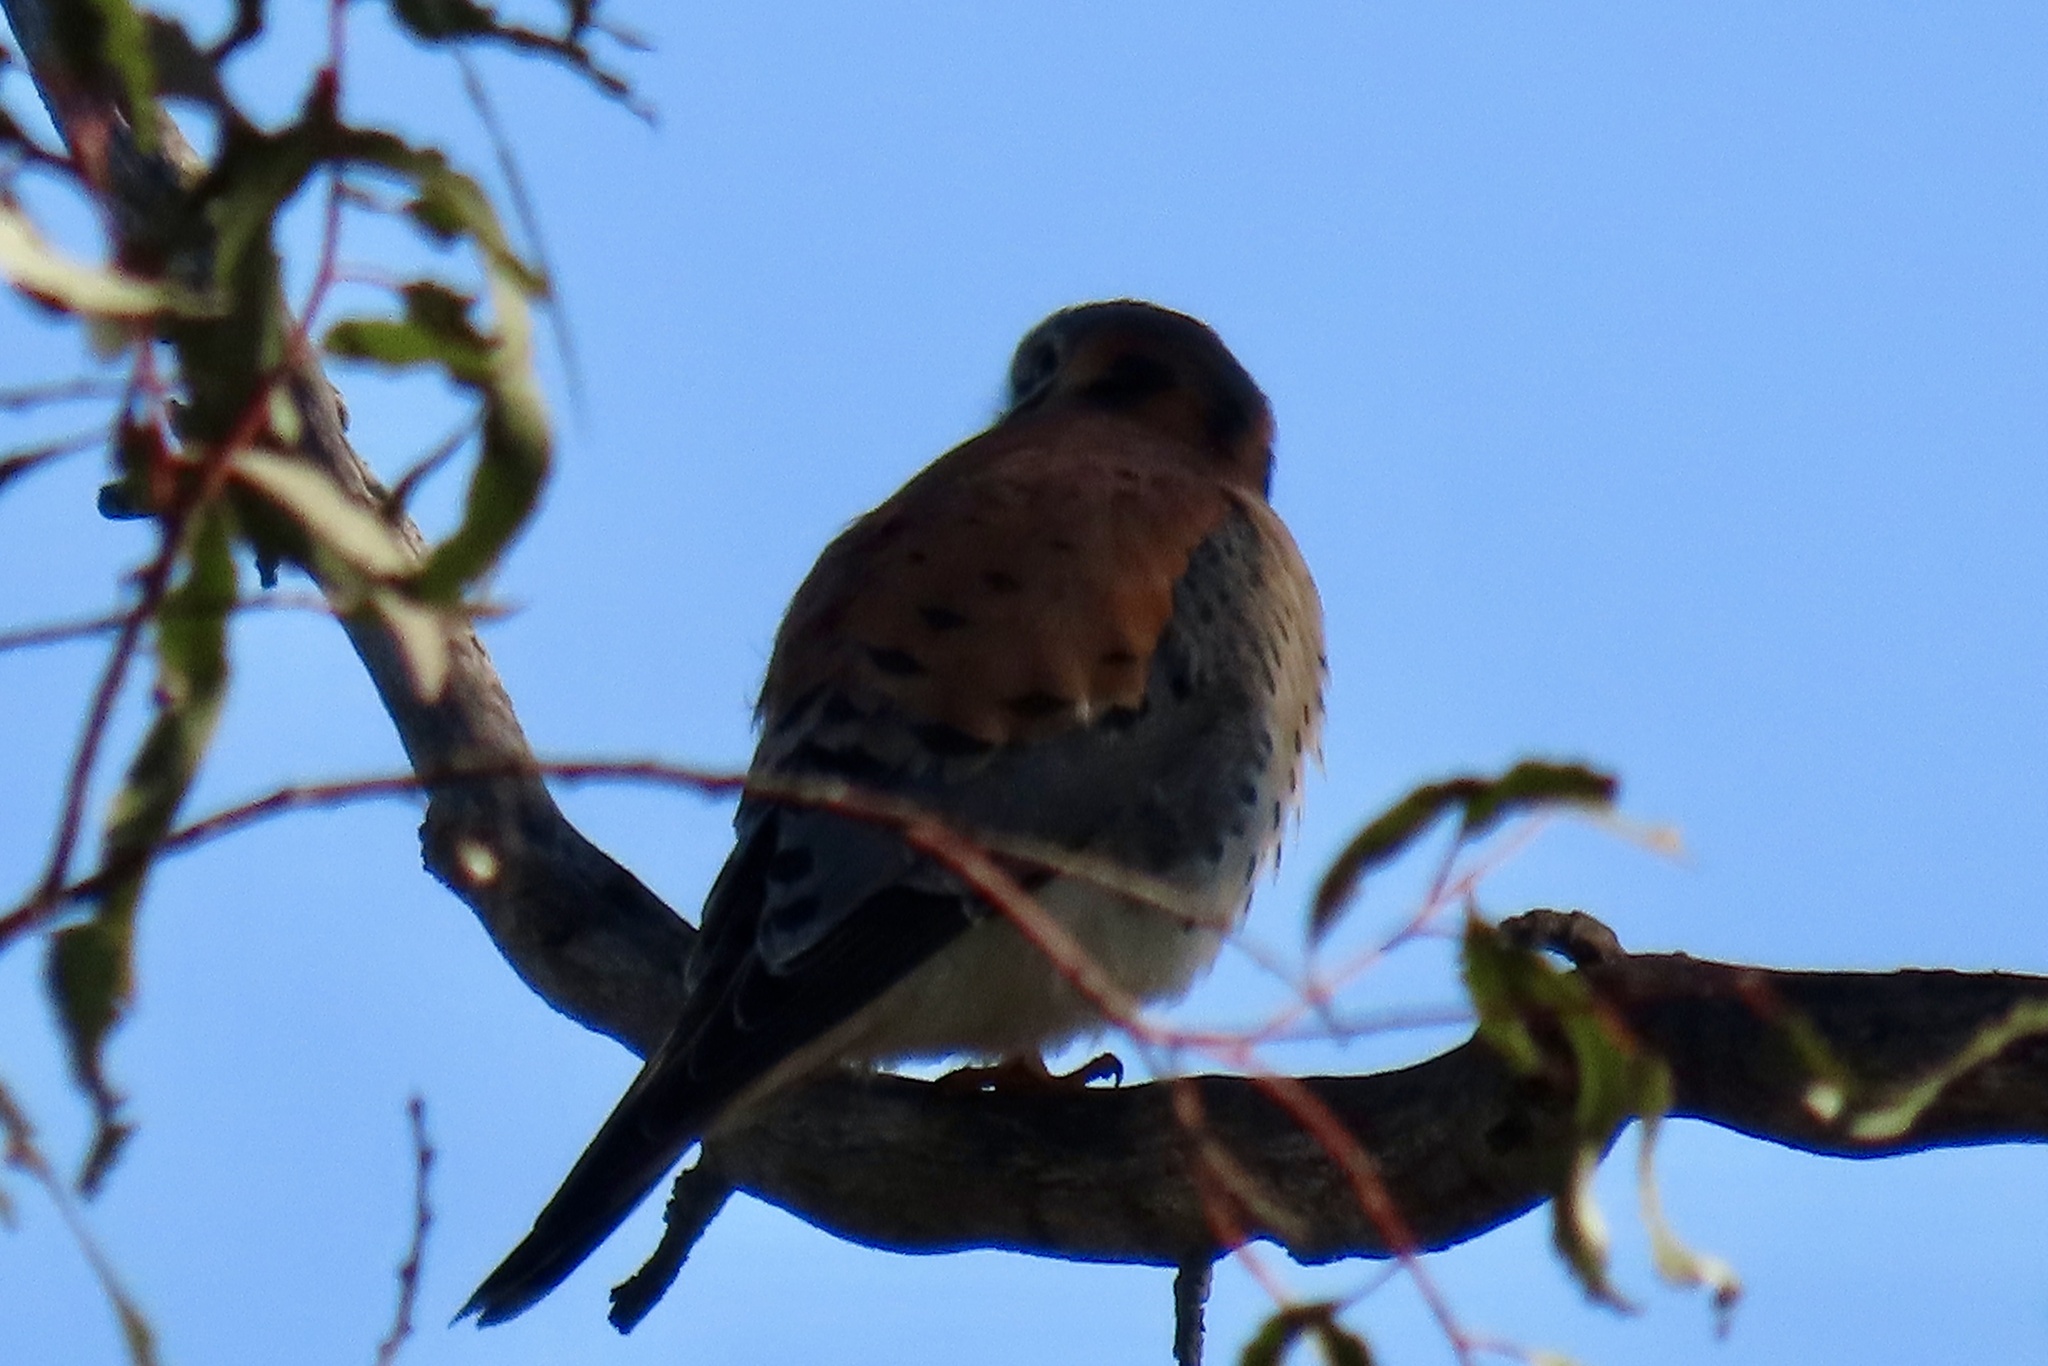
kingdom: Animalia
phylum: Chordata
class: Aves
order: Falconiformes
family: Falconidae
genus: Falco
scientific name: Falco sparverius
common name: American kestrel
